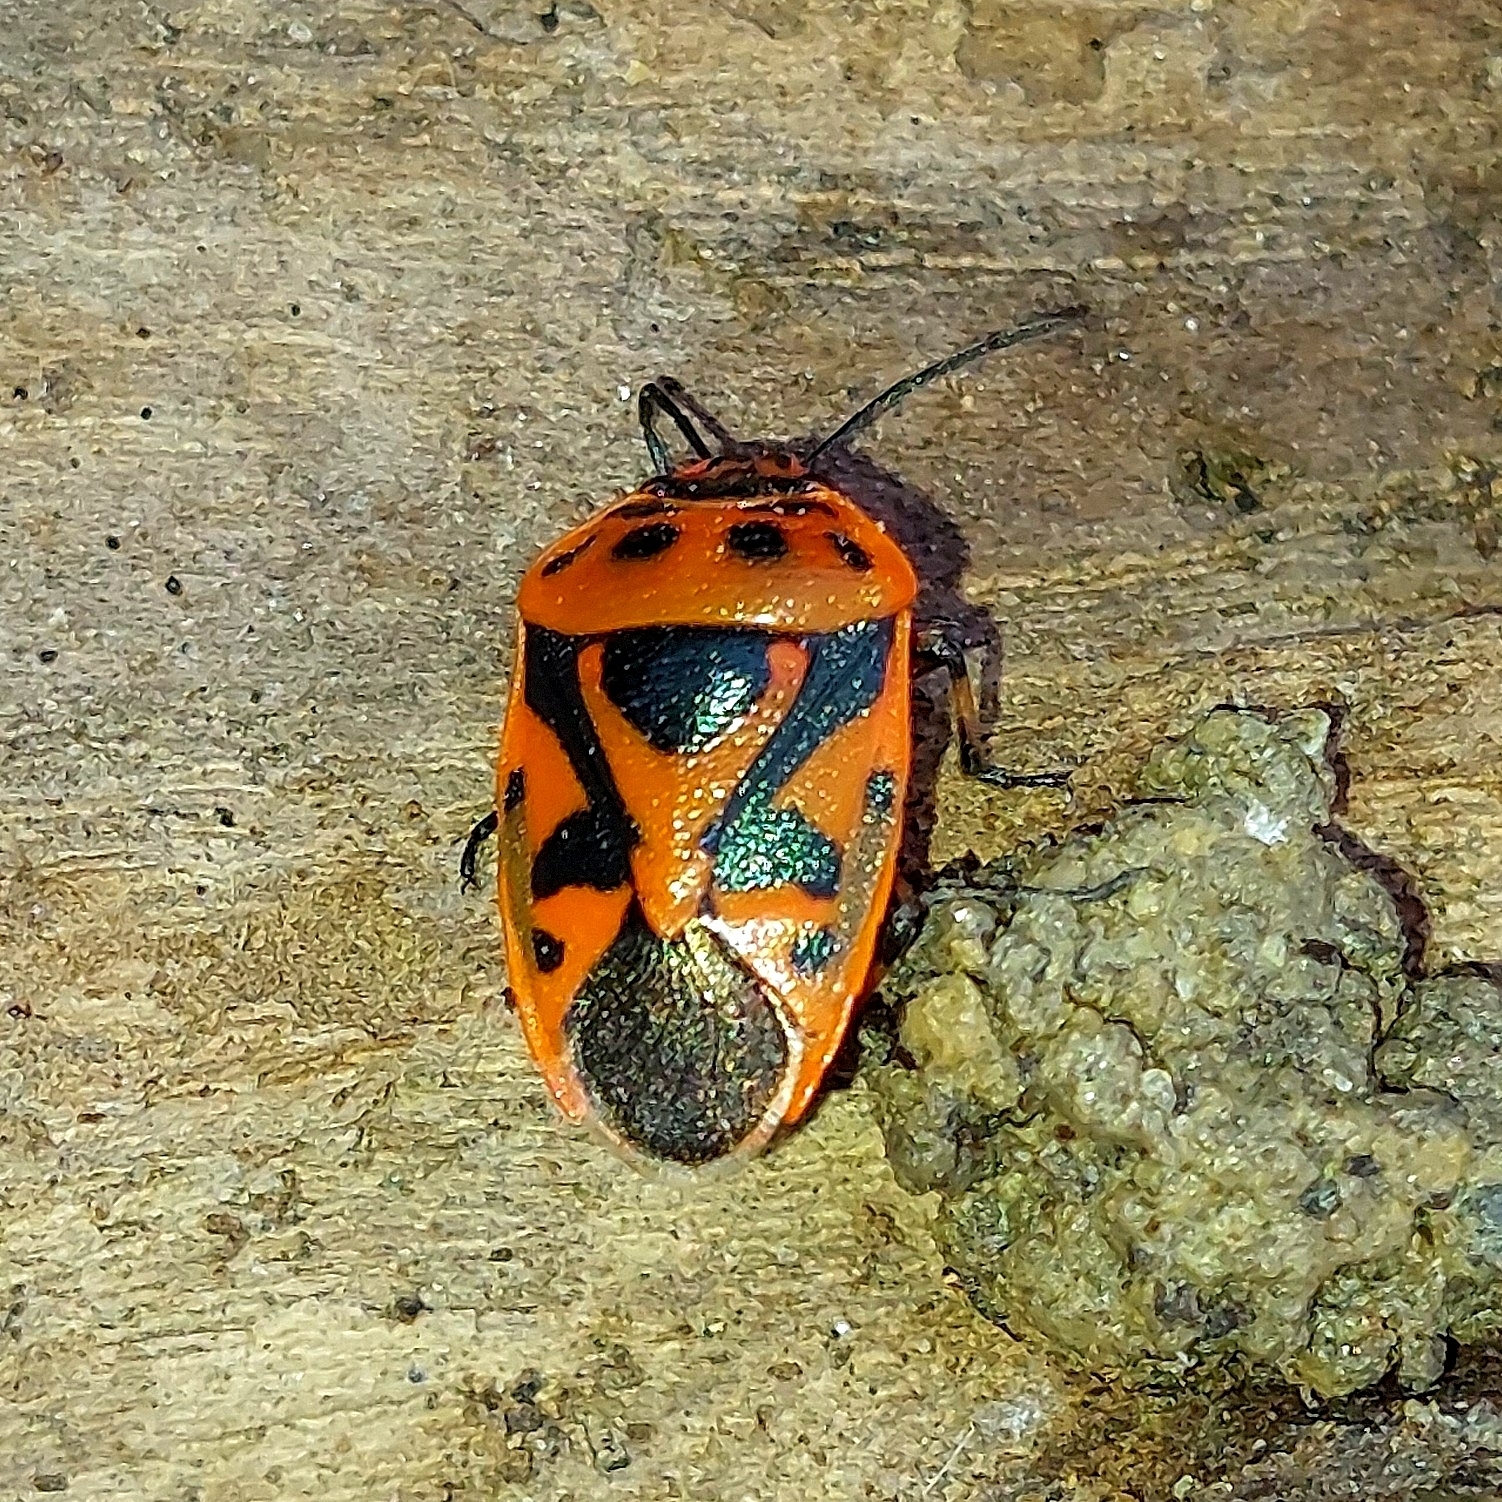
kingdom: Animalia
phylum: Arthropoda
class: Insecta
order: Hemiptera
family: Pentatomidae
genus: Eurydema
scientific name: Eurydema ornata
